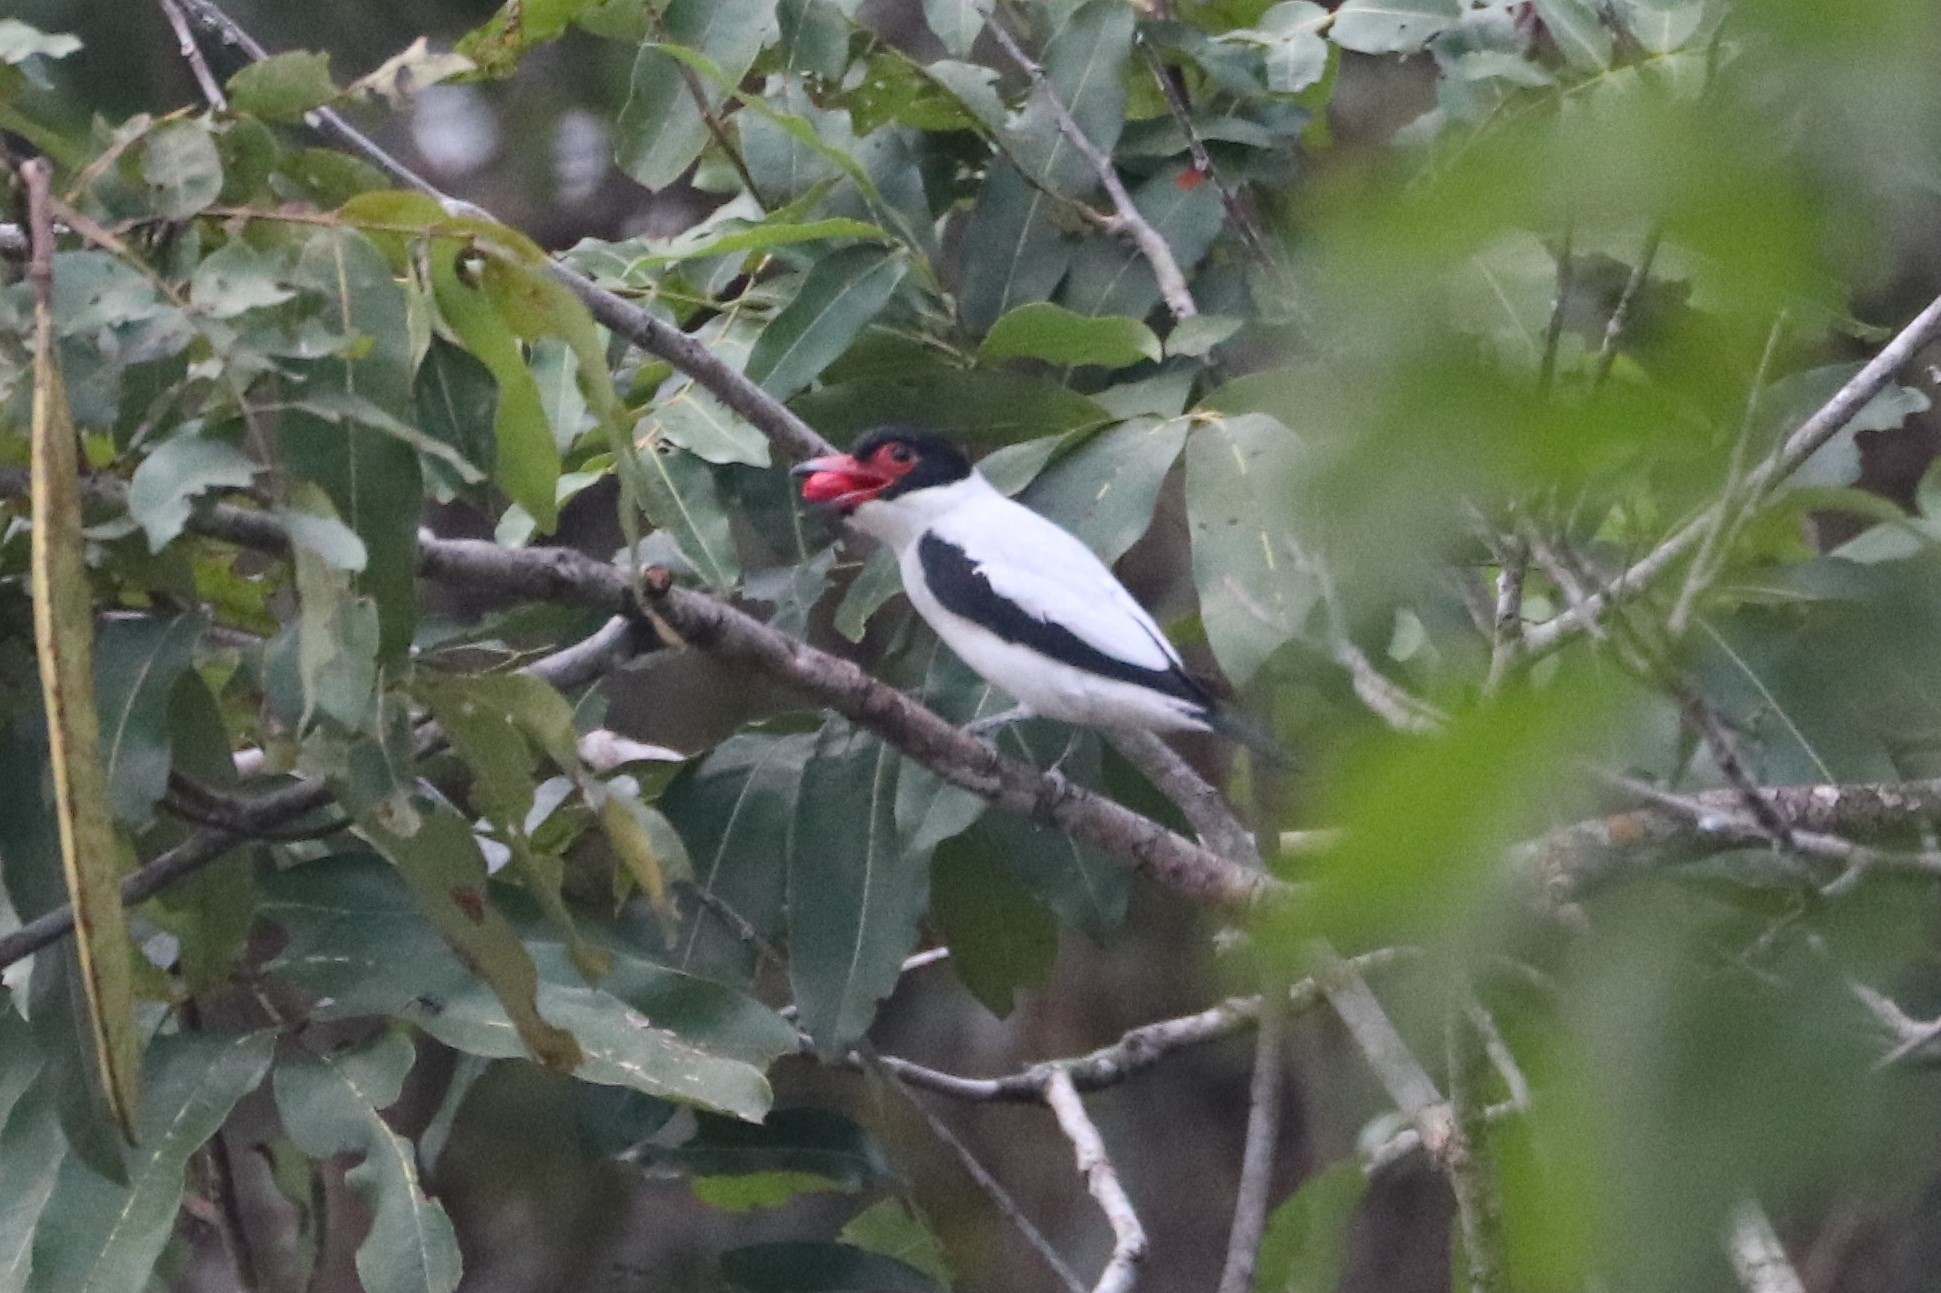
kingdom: Animalia
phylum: Chordata
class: Aves
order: Passeriformes
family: Cotingidae
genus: Tityra
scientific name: Tityra cayana
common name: Black-tailed tityra
